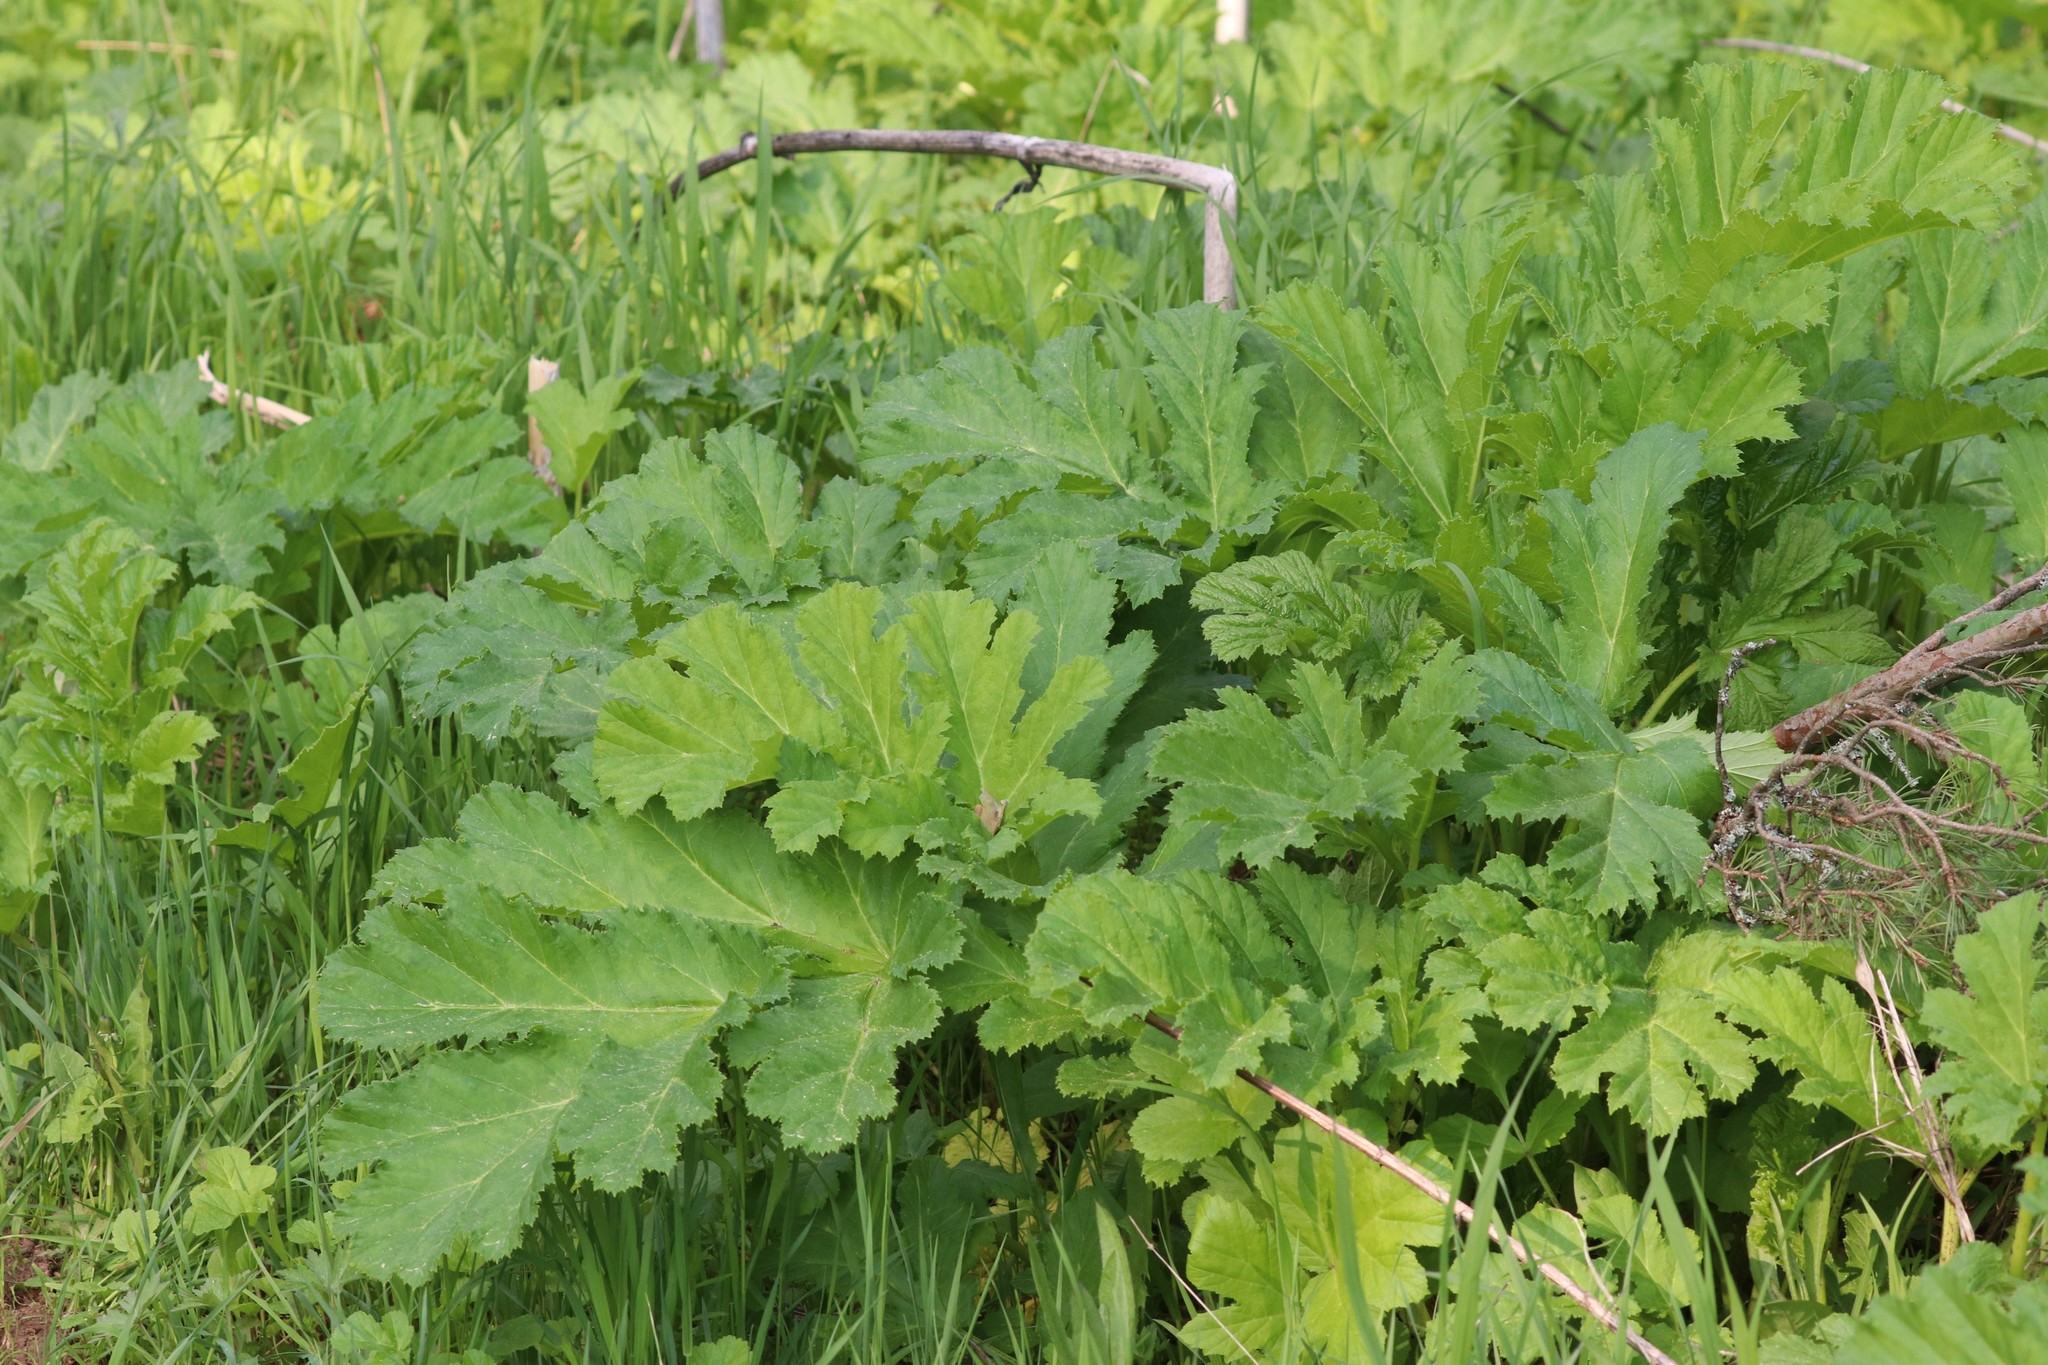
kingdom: Plantae
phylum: Tracheophyta
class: Magnoliopsida
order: Apiales
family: Apiaceae
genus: Heracleum
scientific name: Heracleum sosnowskyi
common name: Sosnowsky's hogweed
